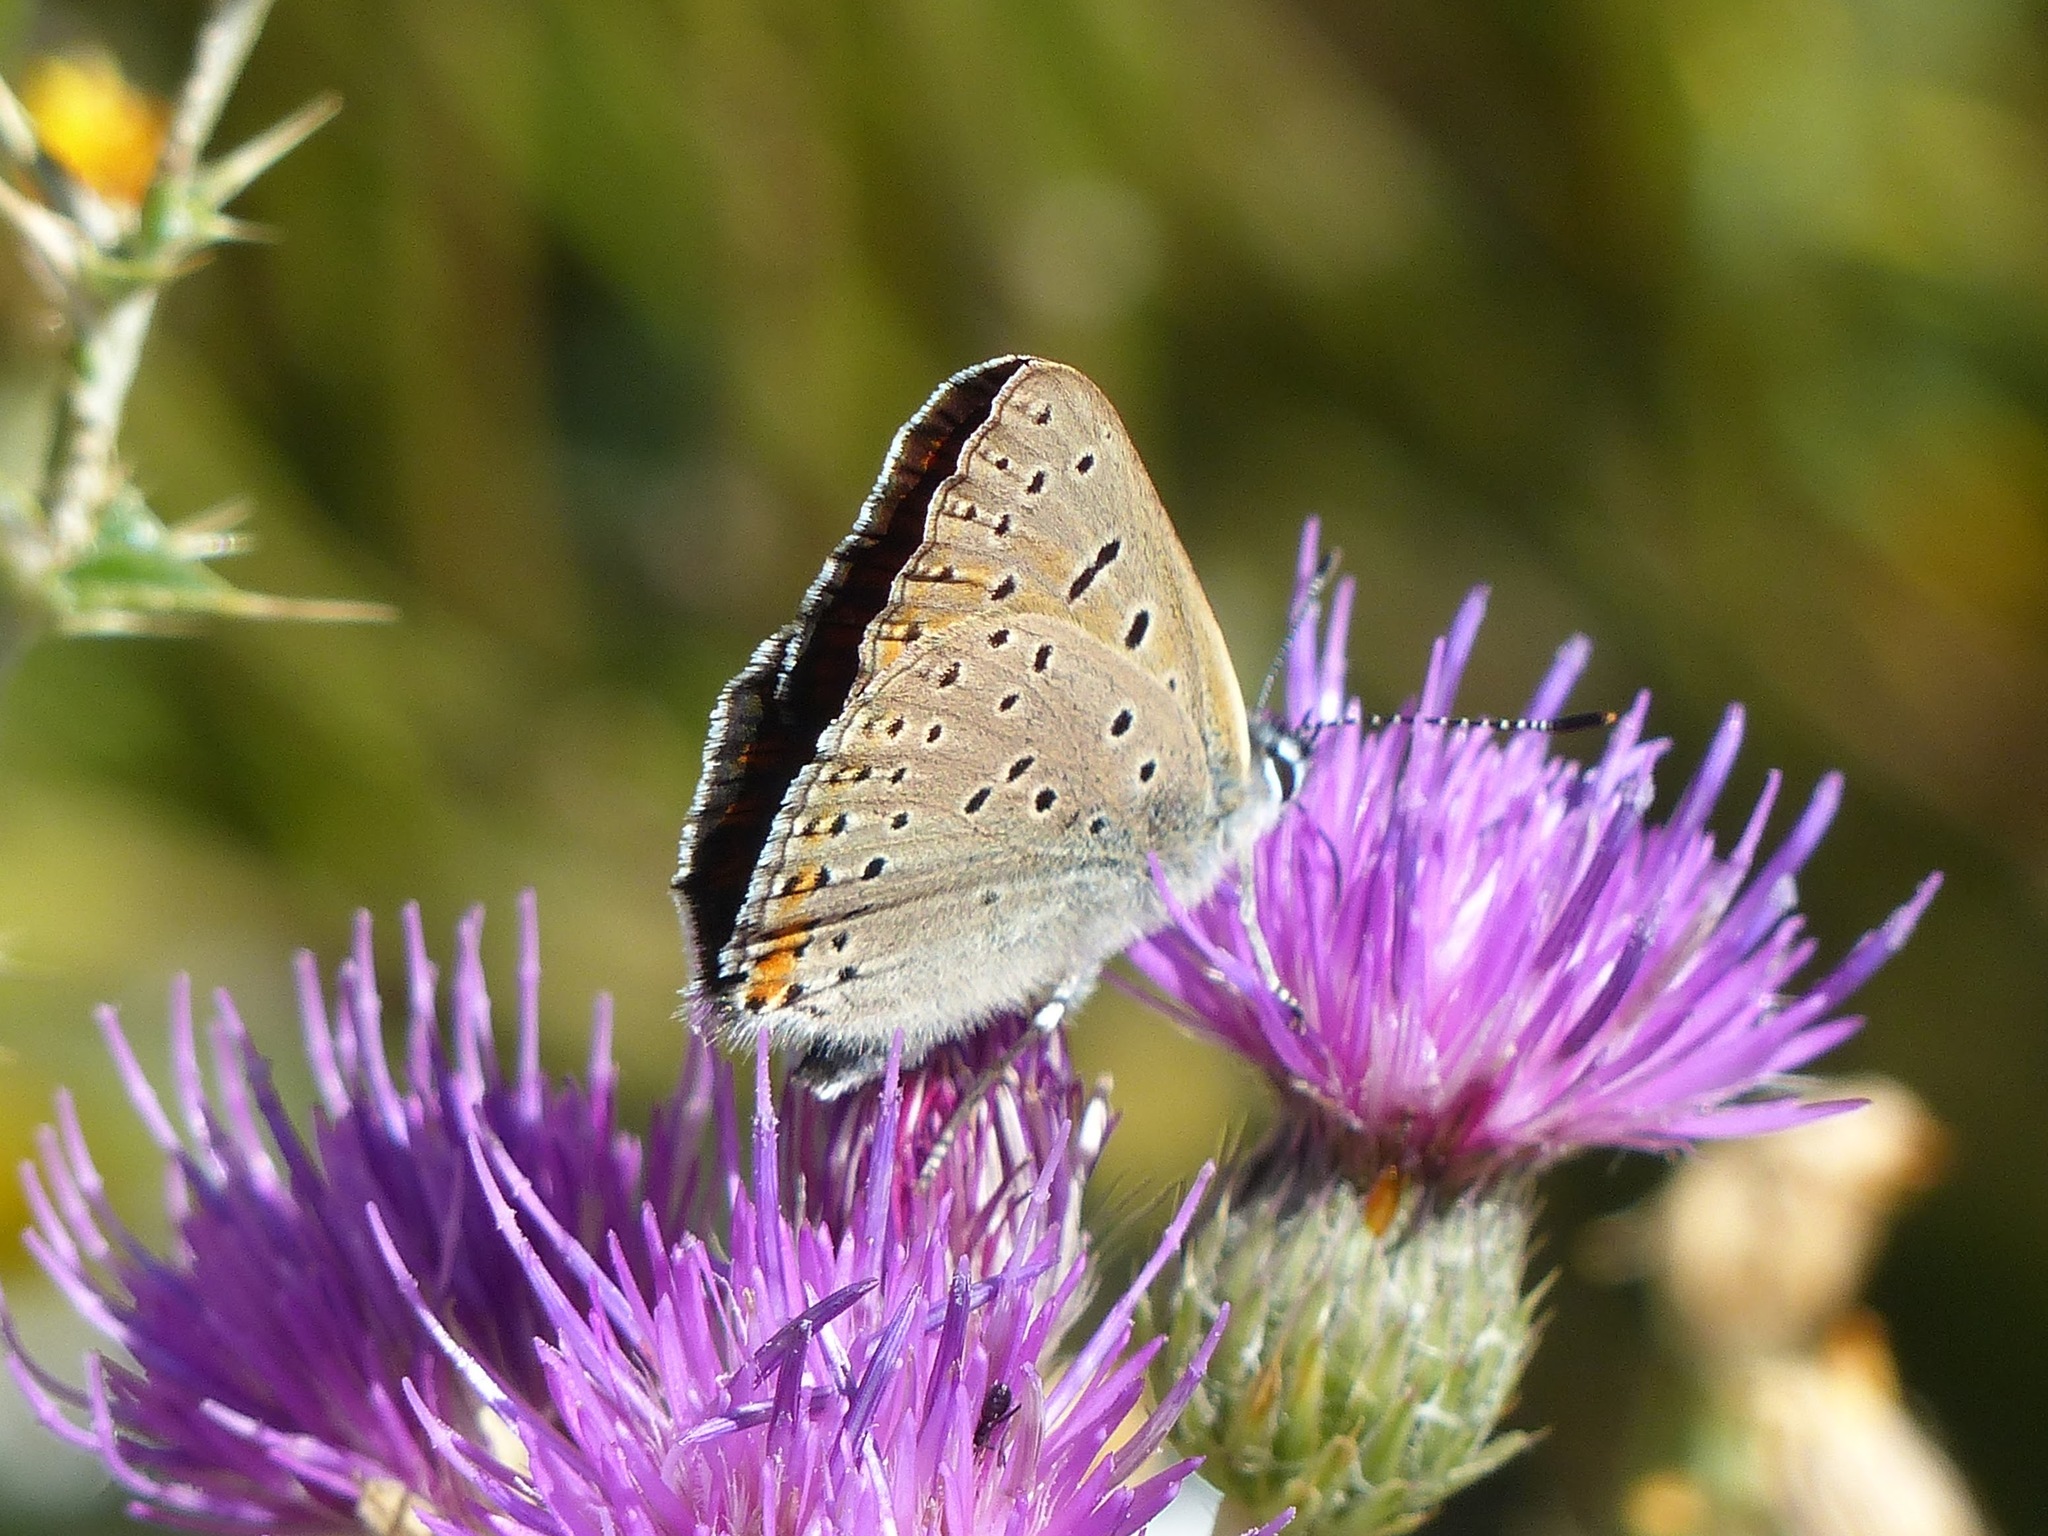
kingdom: Animalia
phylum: Arthropoda
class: Insecta
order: Lepidoptera
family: Lycaenidae
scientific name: Lycaenidae
